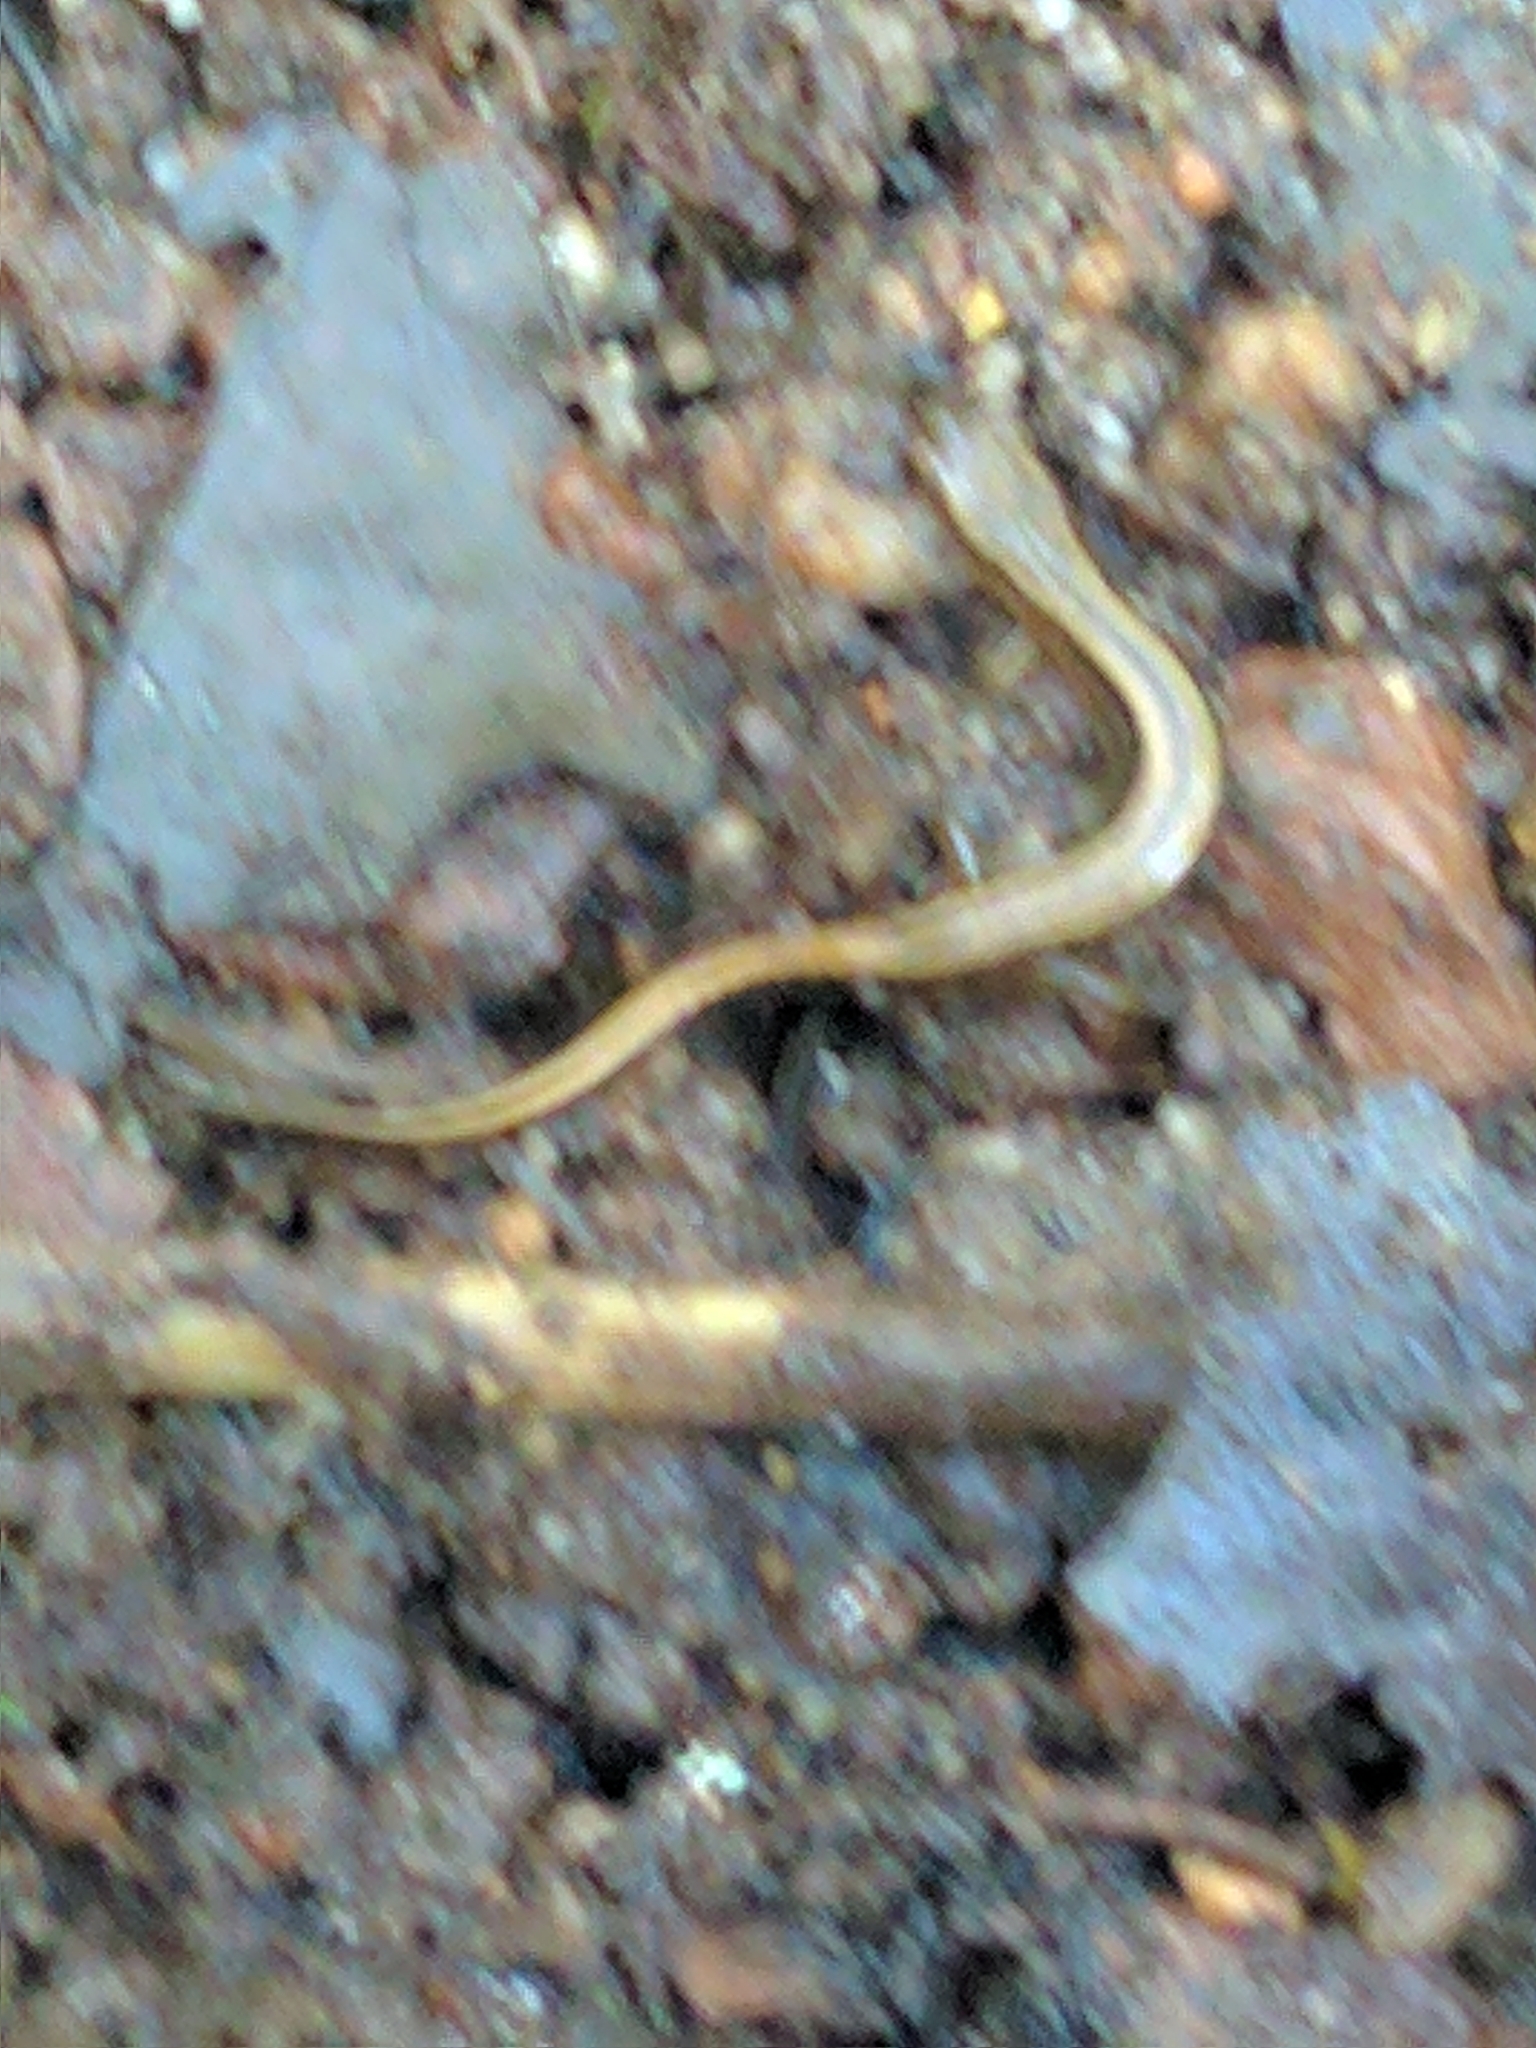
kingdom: Animalia
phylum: Chordata
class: Amphibia
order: Caudata
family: Plethodontidae
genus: Eurycea
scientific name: Eurycea bislineata
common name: Northern two-lined salamander
